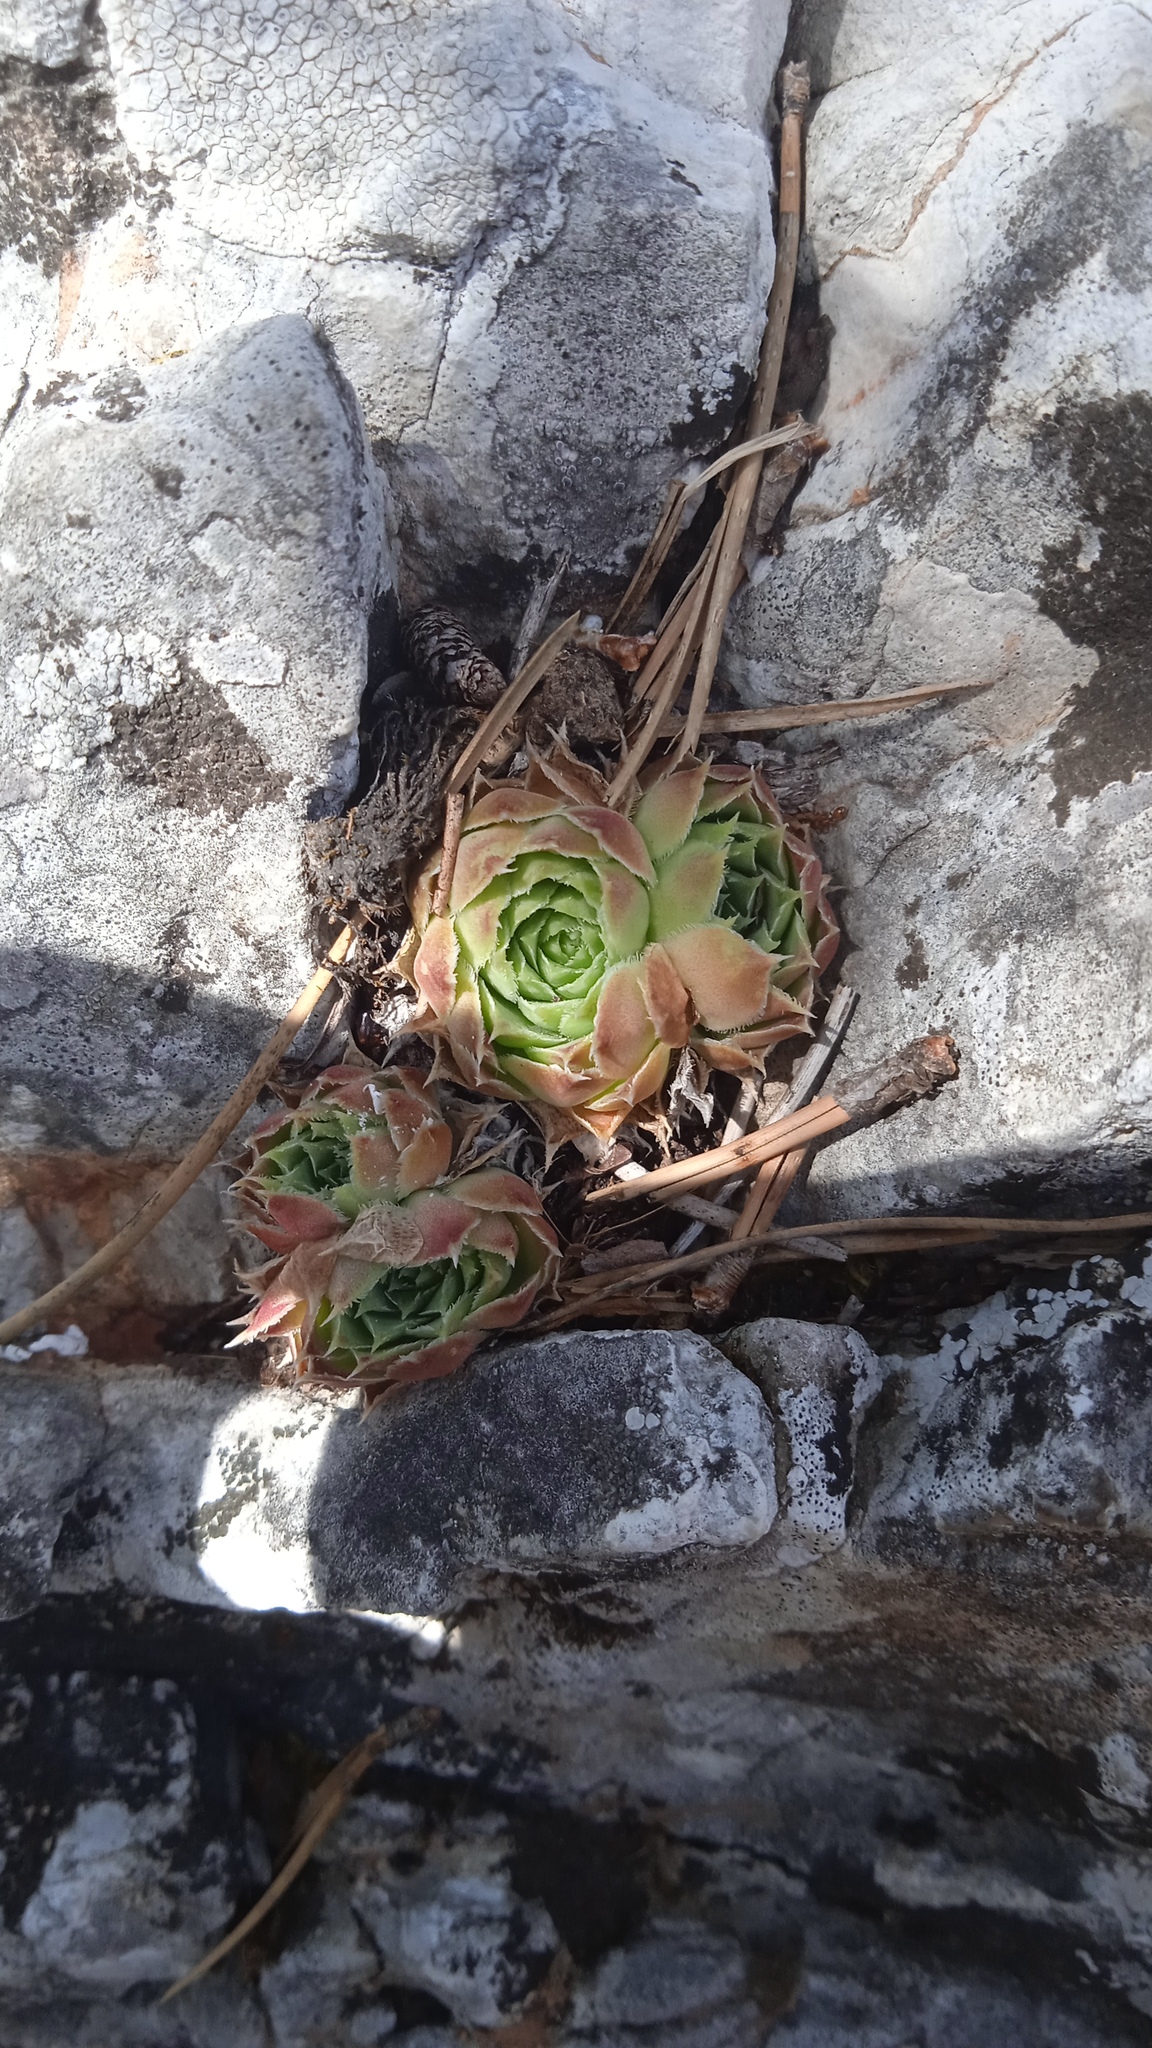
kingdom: Plantae
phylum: Tracheophyta
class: Magnoliopsida
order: Saxifragales
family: Crassulaceae
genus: Sempervivum
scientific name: Sempervivum heuffelii
